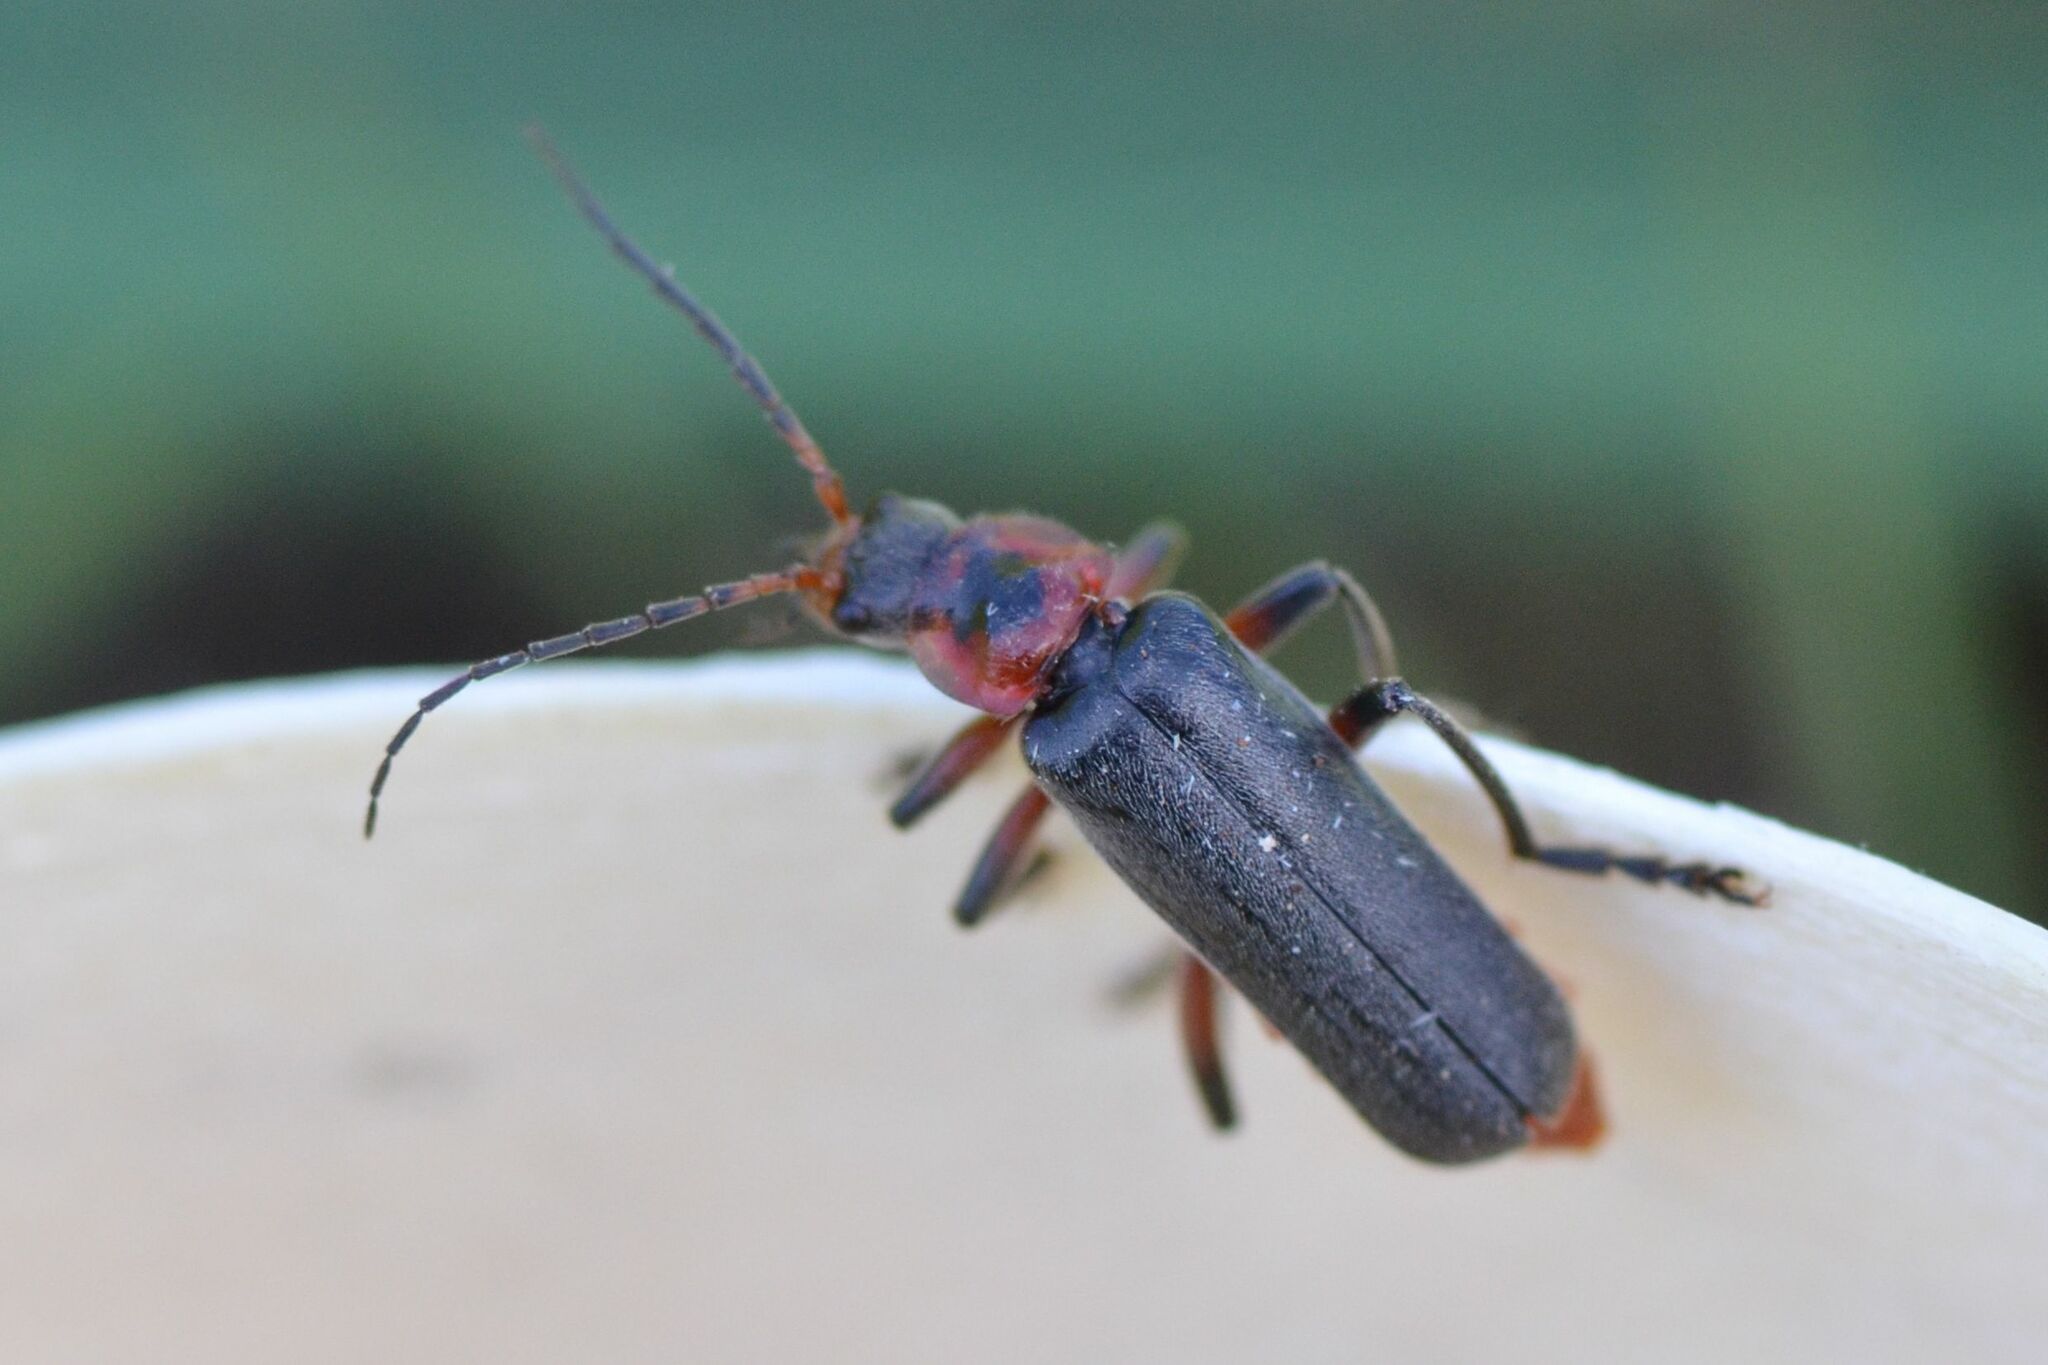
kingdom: Animalia
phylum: Arthropoda
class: Insecta
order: Coleoptera
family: Cantharidae
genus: Cantharis
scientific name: Cantharis rustica
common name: Soldier beetle
